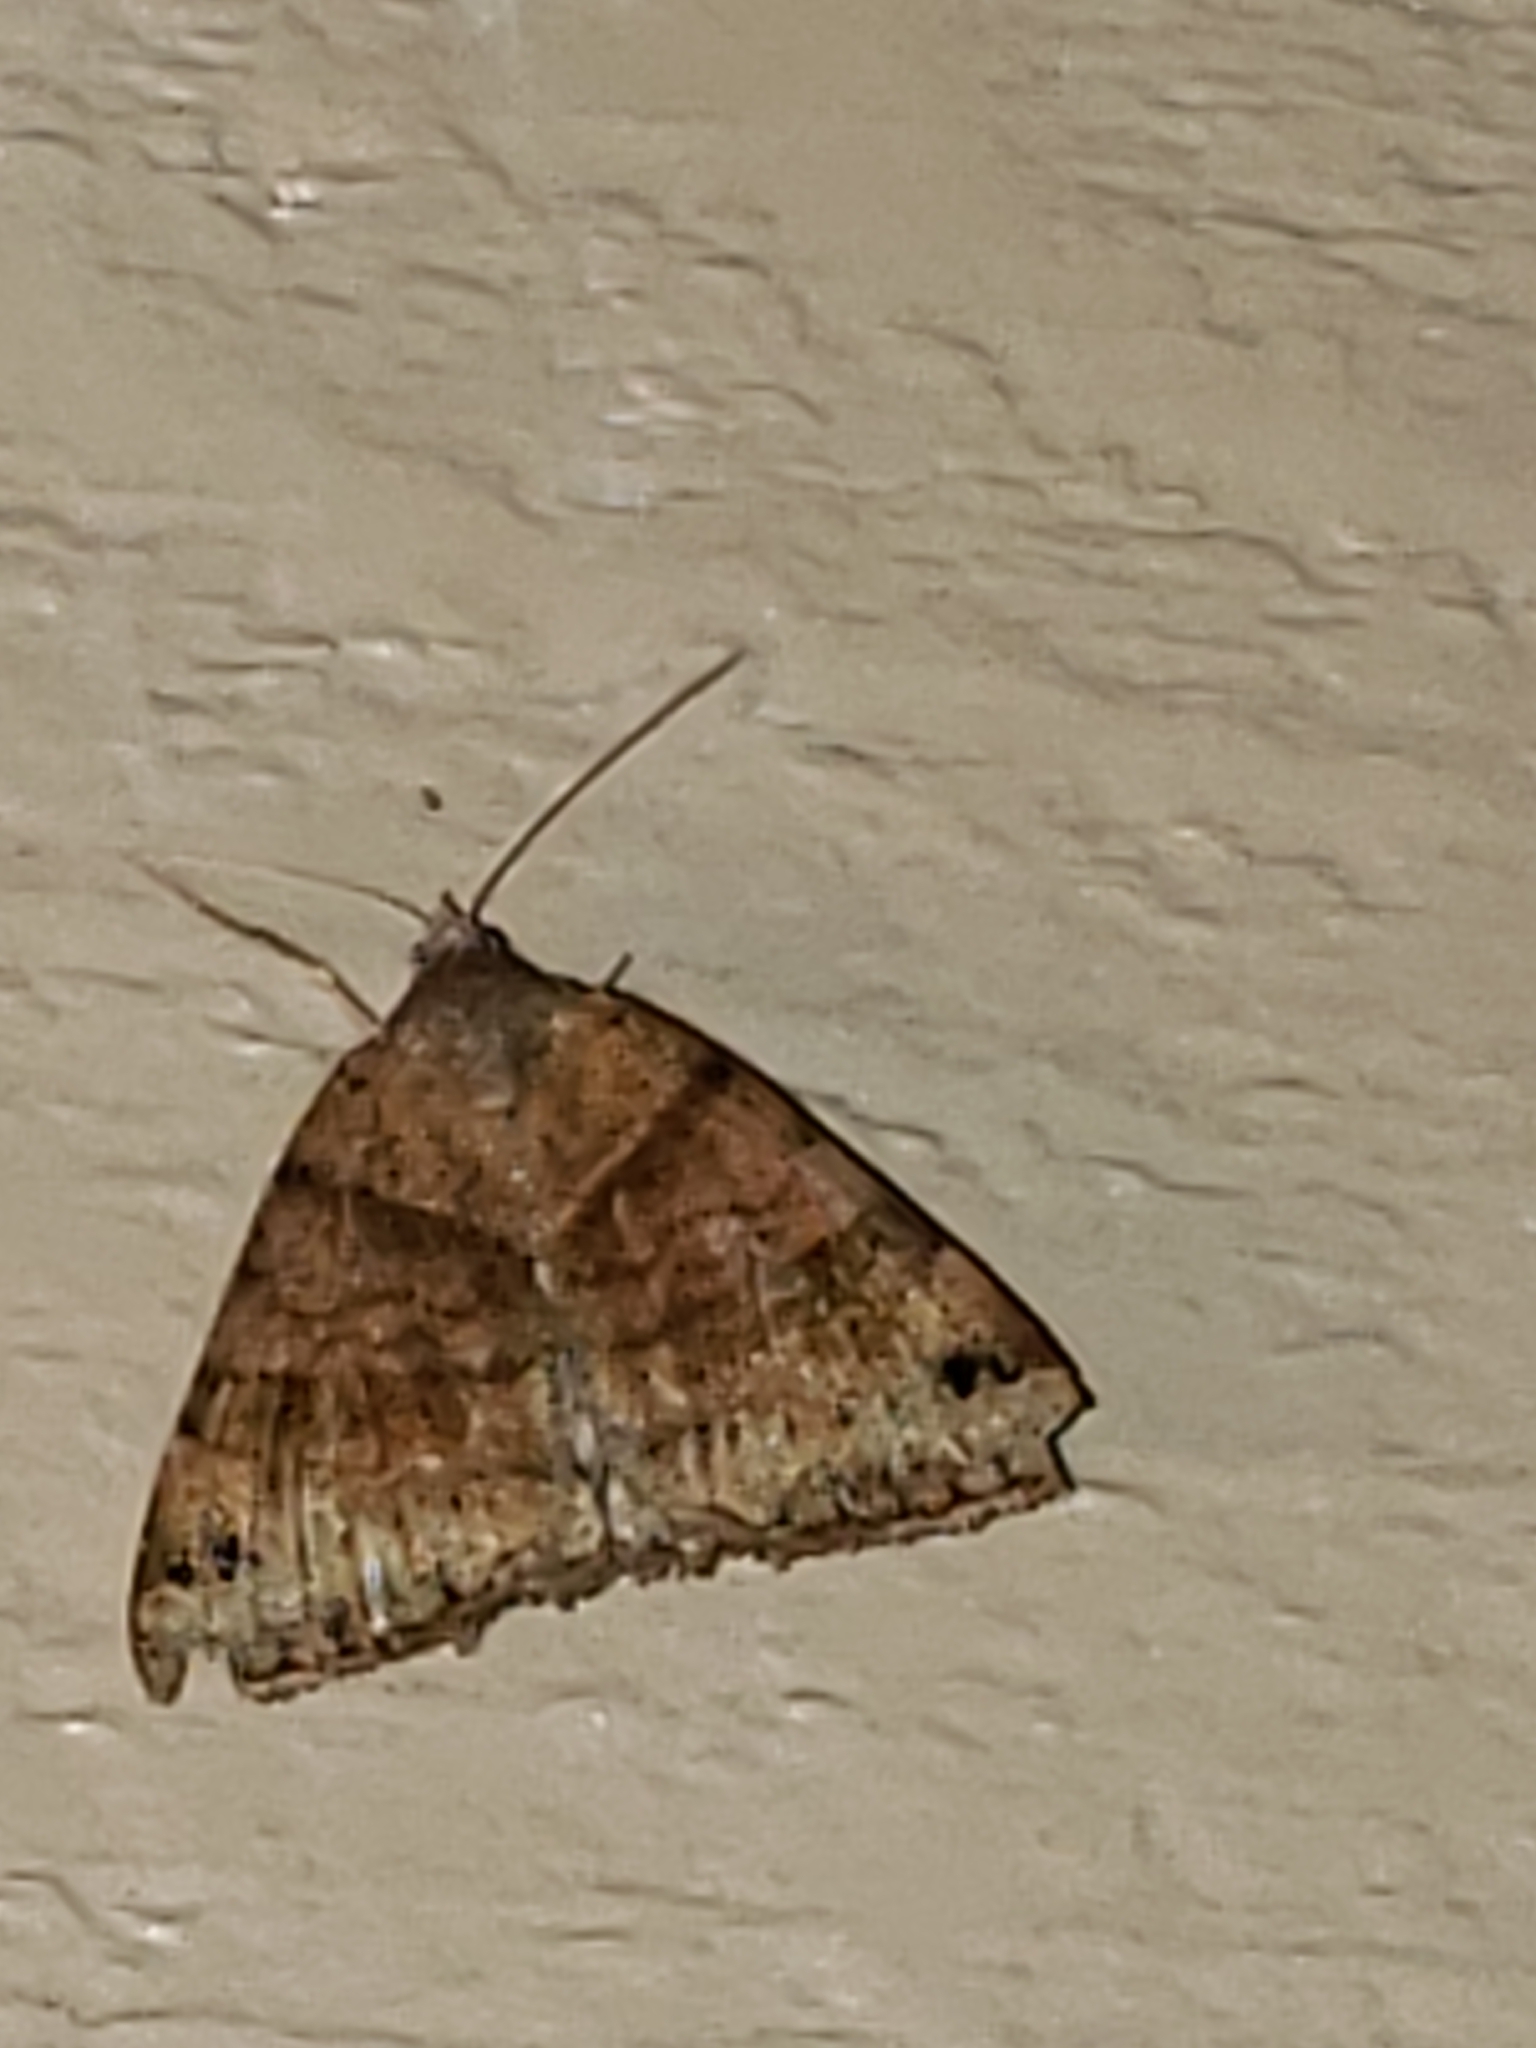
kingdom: Animalia
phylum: Arthropoda
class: Insecta
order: Lepidoptera
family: Erebidae
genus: Caenurgina
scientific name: Caenurgina crassiuscula
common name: Double-barred
